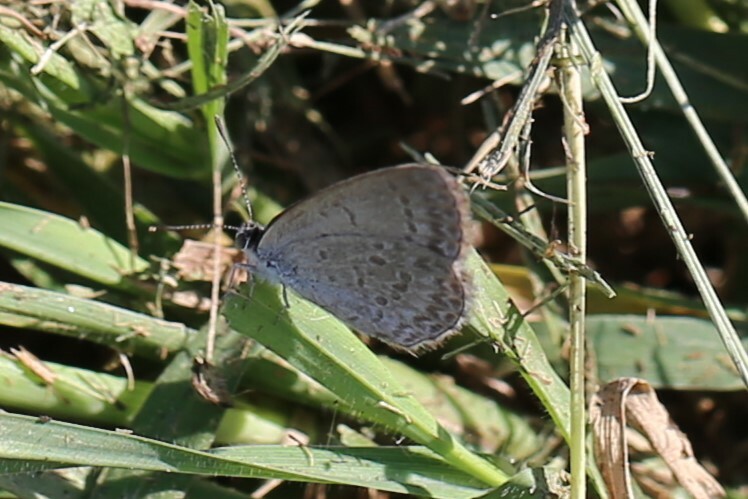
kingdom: Animalia
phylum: Arthropoda
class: Insecta
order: Lepidoptera
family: Lycaenidae
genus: Zizina
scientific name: Zizina otis
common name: Lesser grass blue
